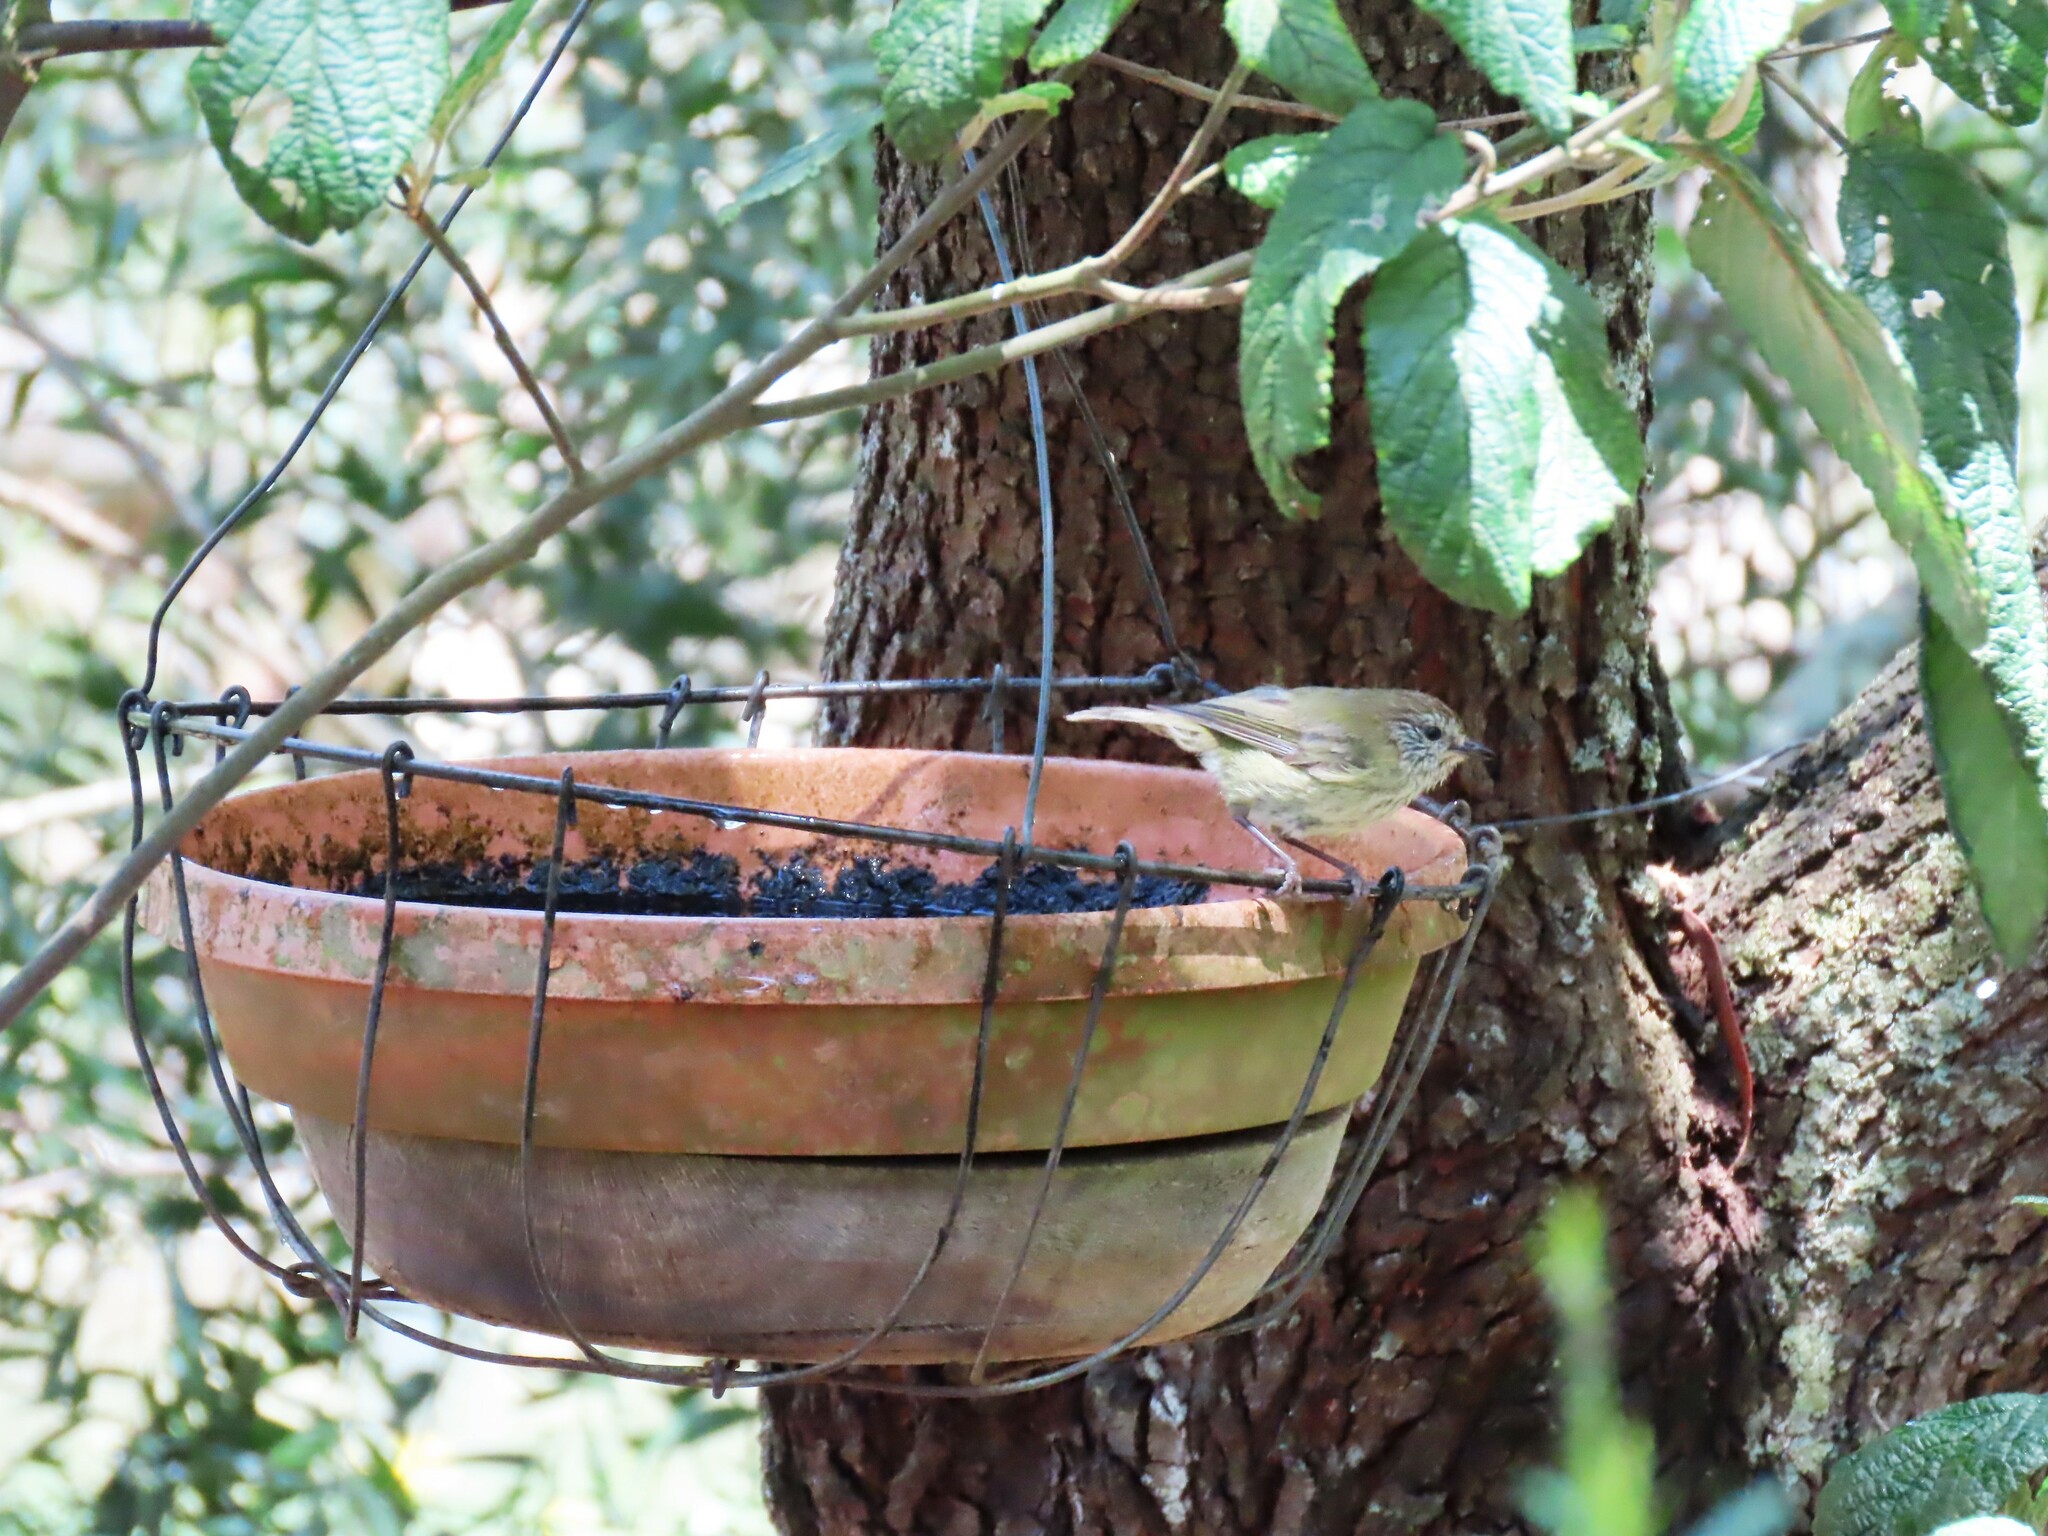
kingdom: Animalia
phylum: Chordata
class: Aves
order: Passeriformes
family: Acanthizidae
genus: Acanthiza
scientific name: Acanthiza lineata
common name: Striated thornbill
